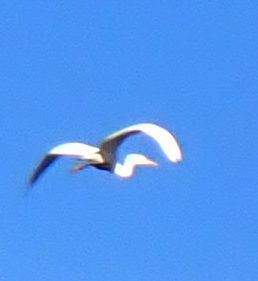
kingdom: Animalia
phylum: Chordata
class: Aves
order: Pelecaniformes
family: Ardeidae
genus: Ardea
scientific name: Ardea alba
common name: Great egret
